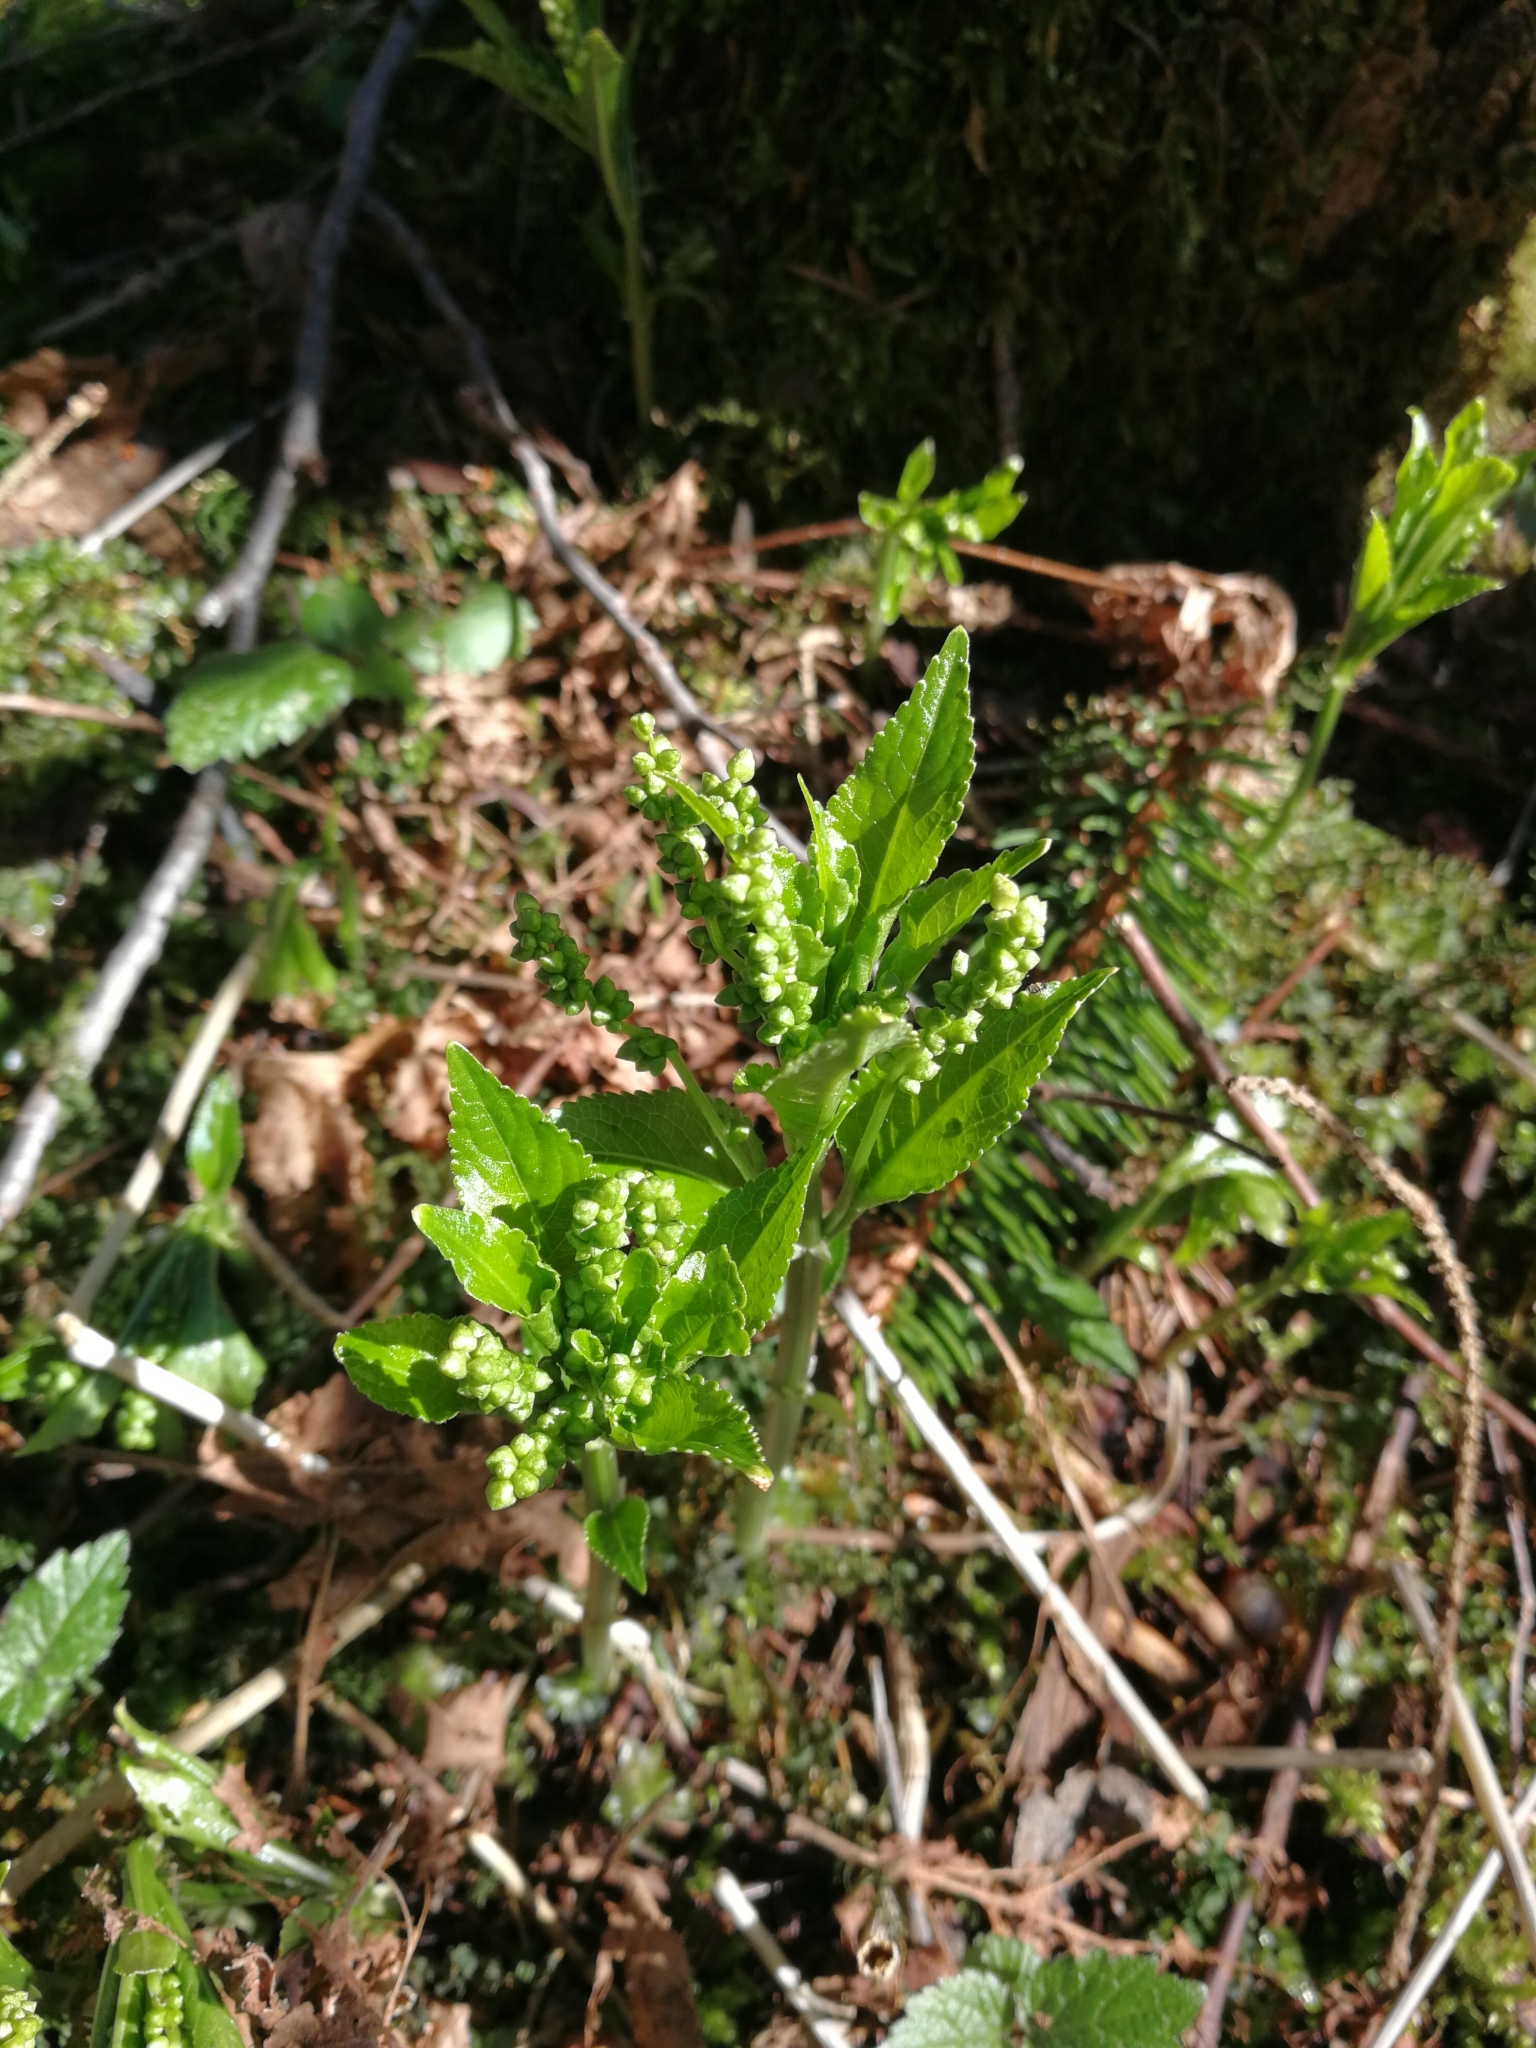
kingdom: Plantae
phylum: Tracheophyta
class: Magnoliopsida
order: Malpighiales
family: Euphorbiaceae
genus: Mercurialis
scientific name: Mercurialis perennis
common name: Dog mercury
